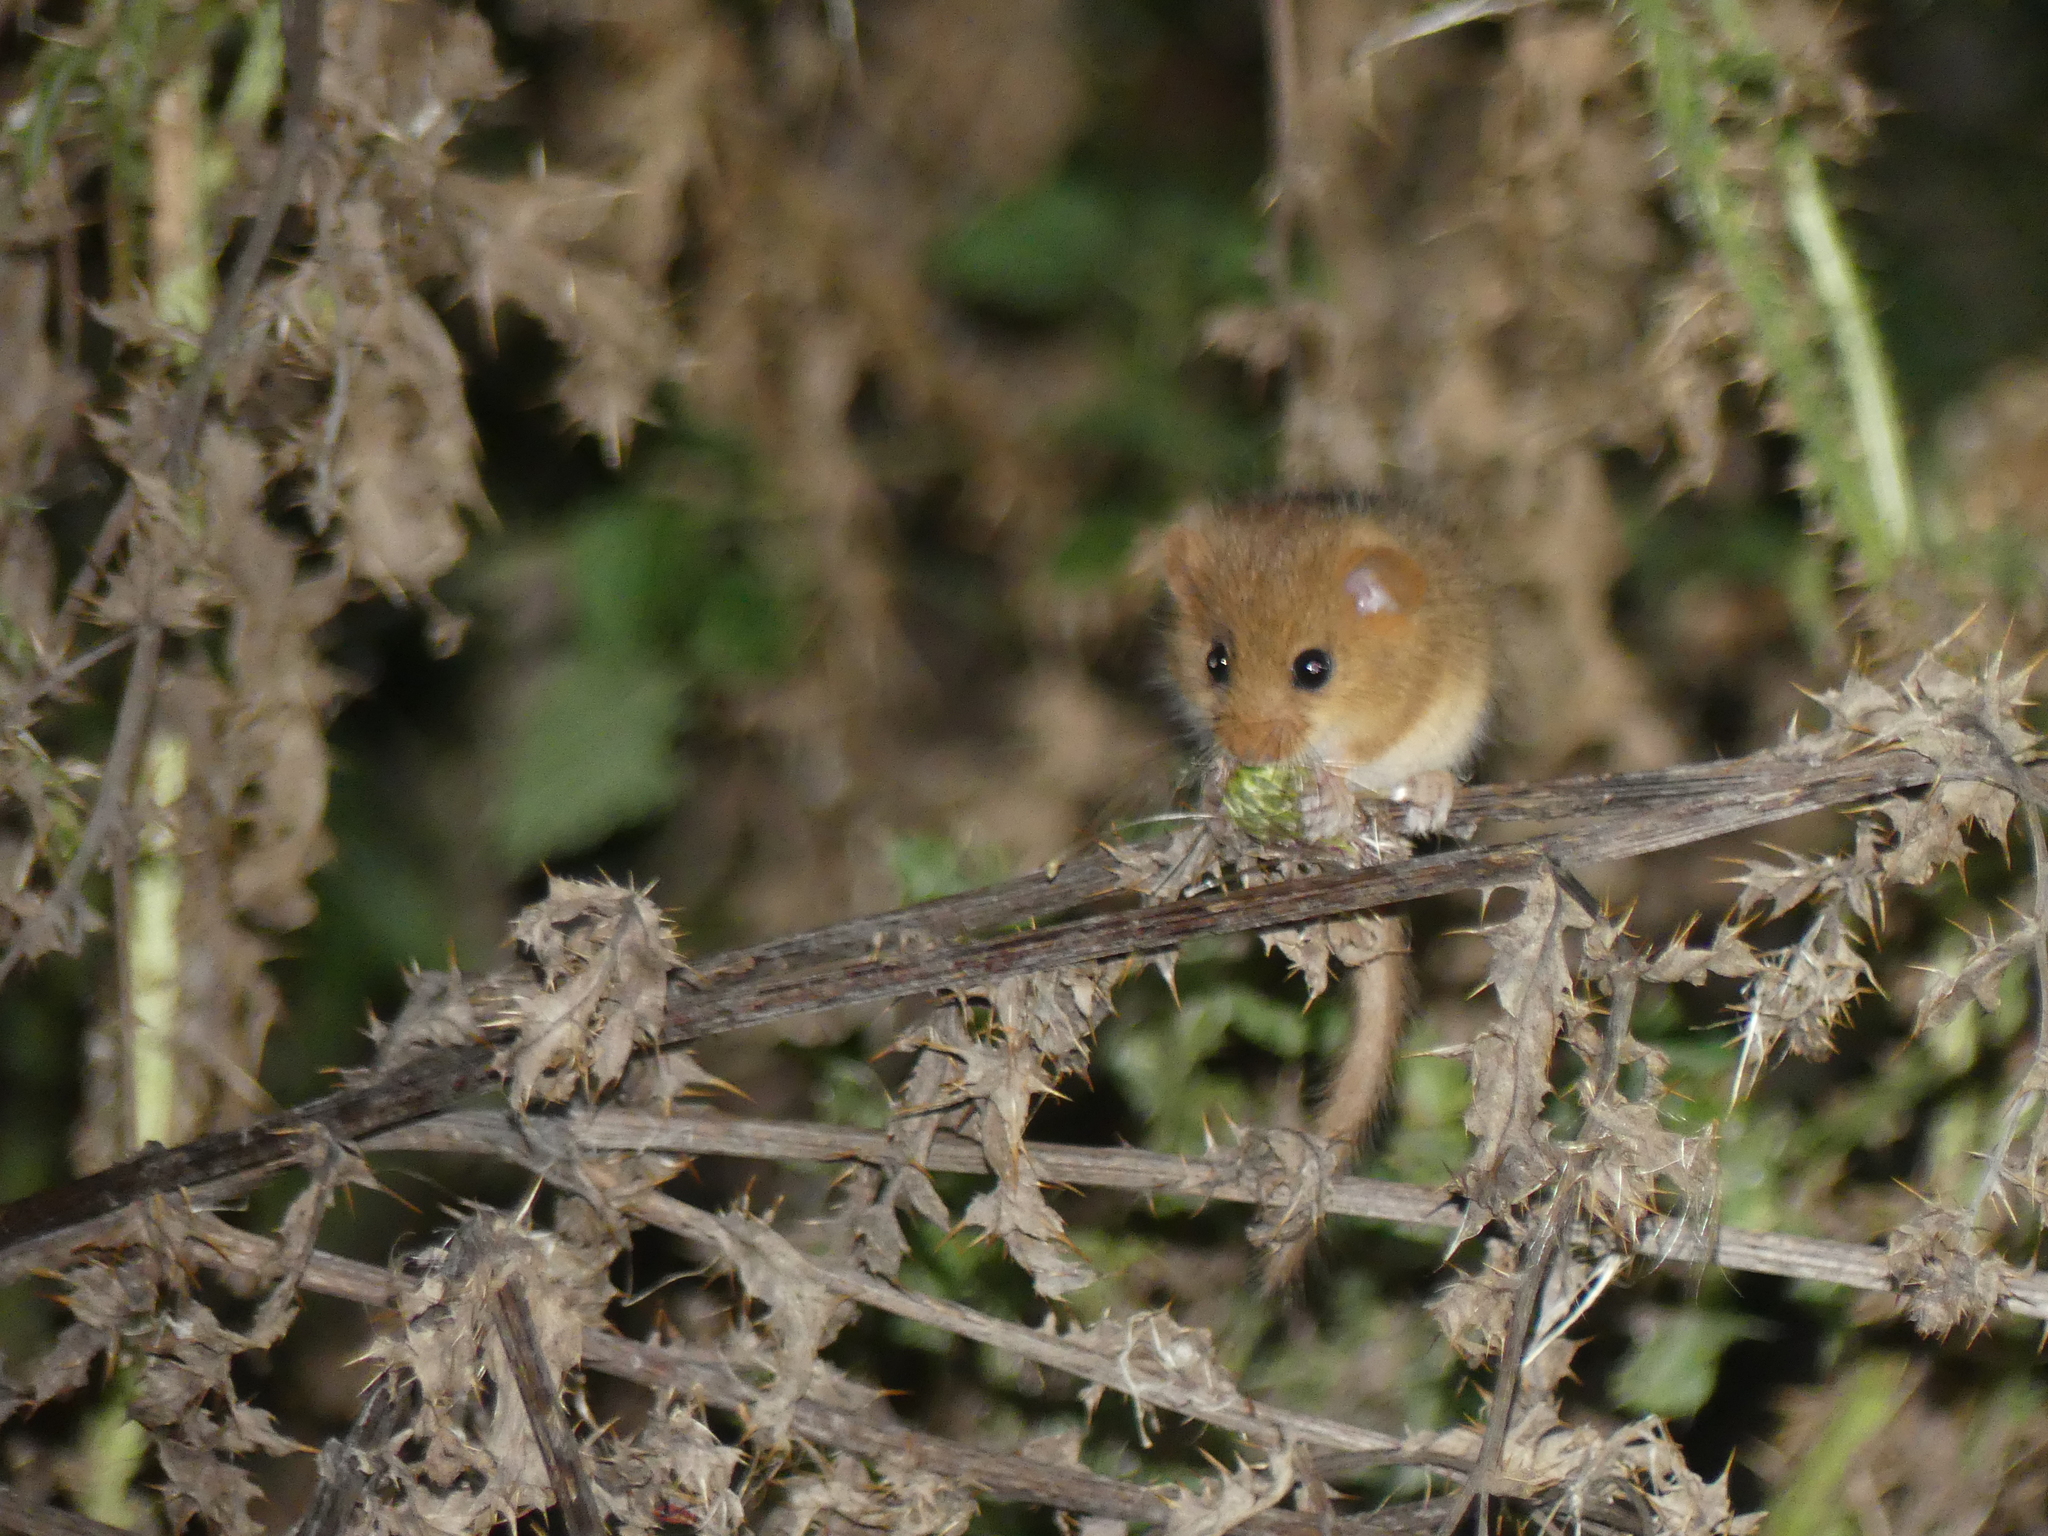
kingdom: Animalia
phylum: Chordata
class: Mammalia
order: Rodentia
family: Muridae
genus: Micromys
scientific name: Micromys minutus
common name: Harvest mouse
